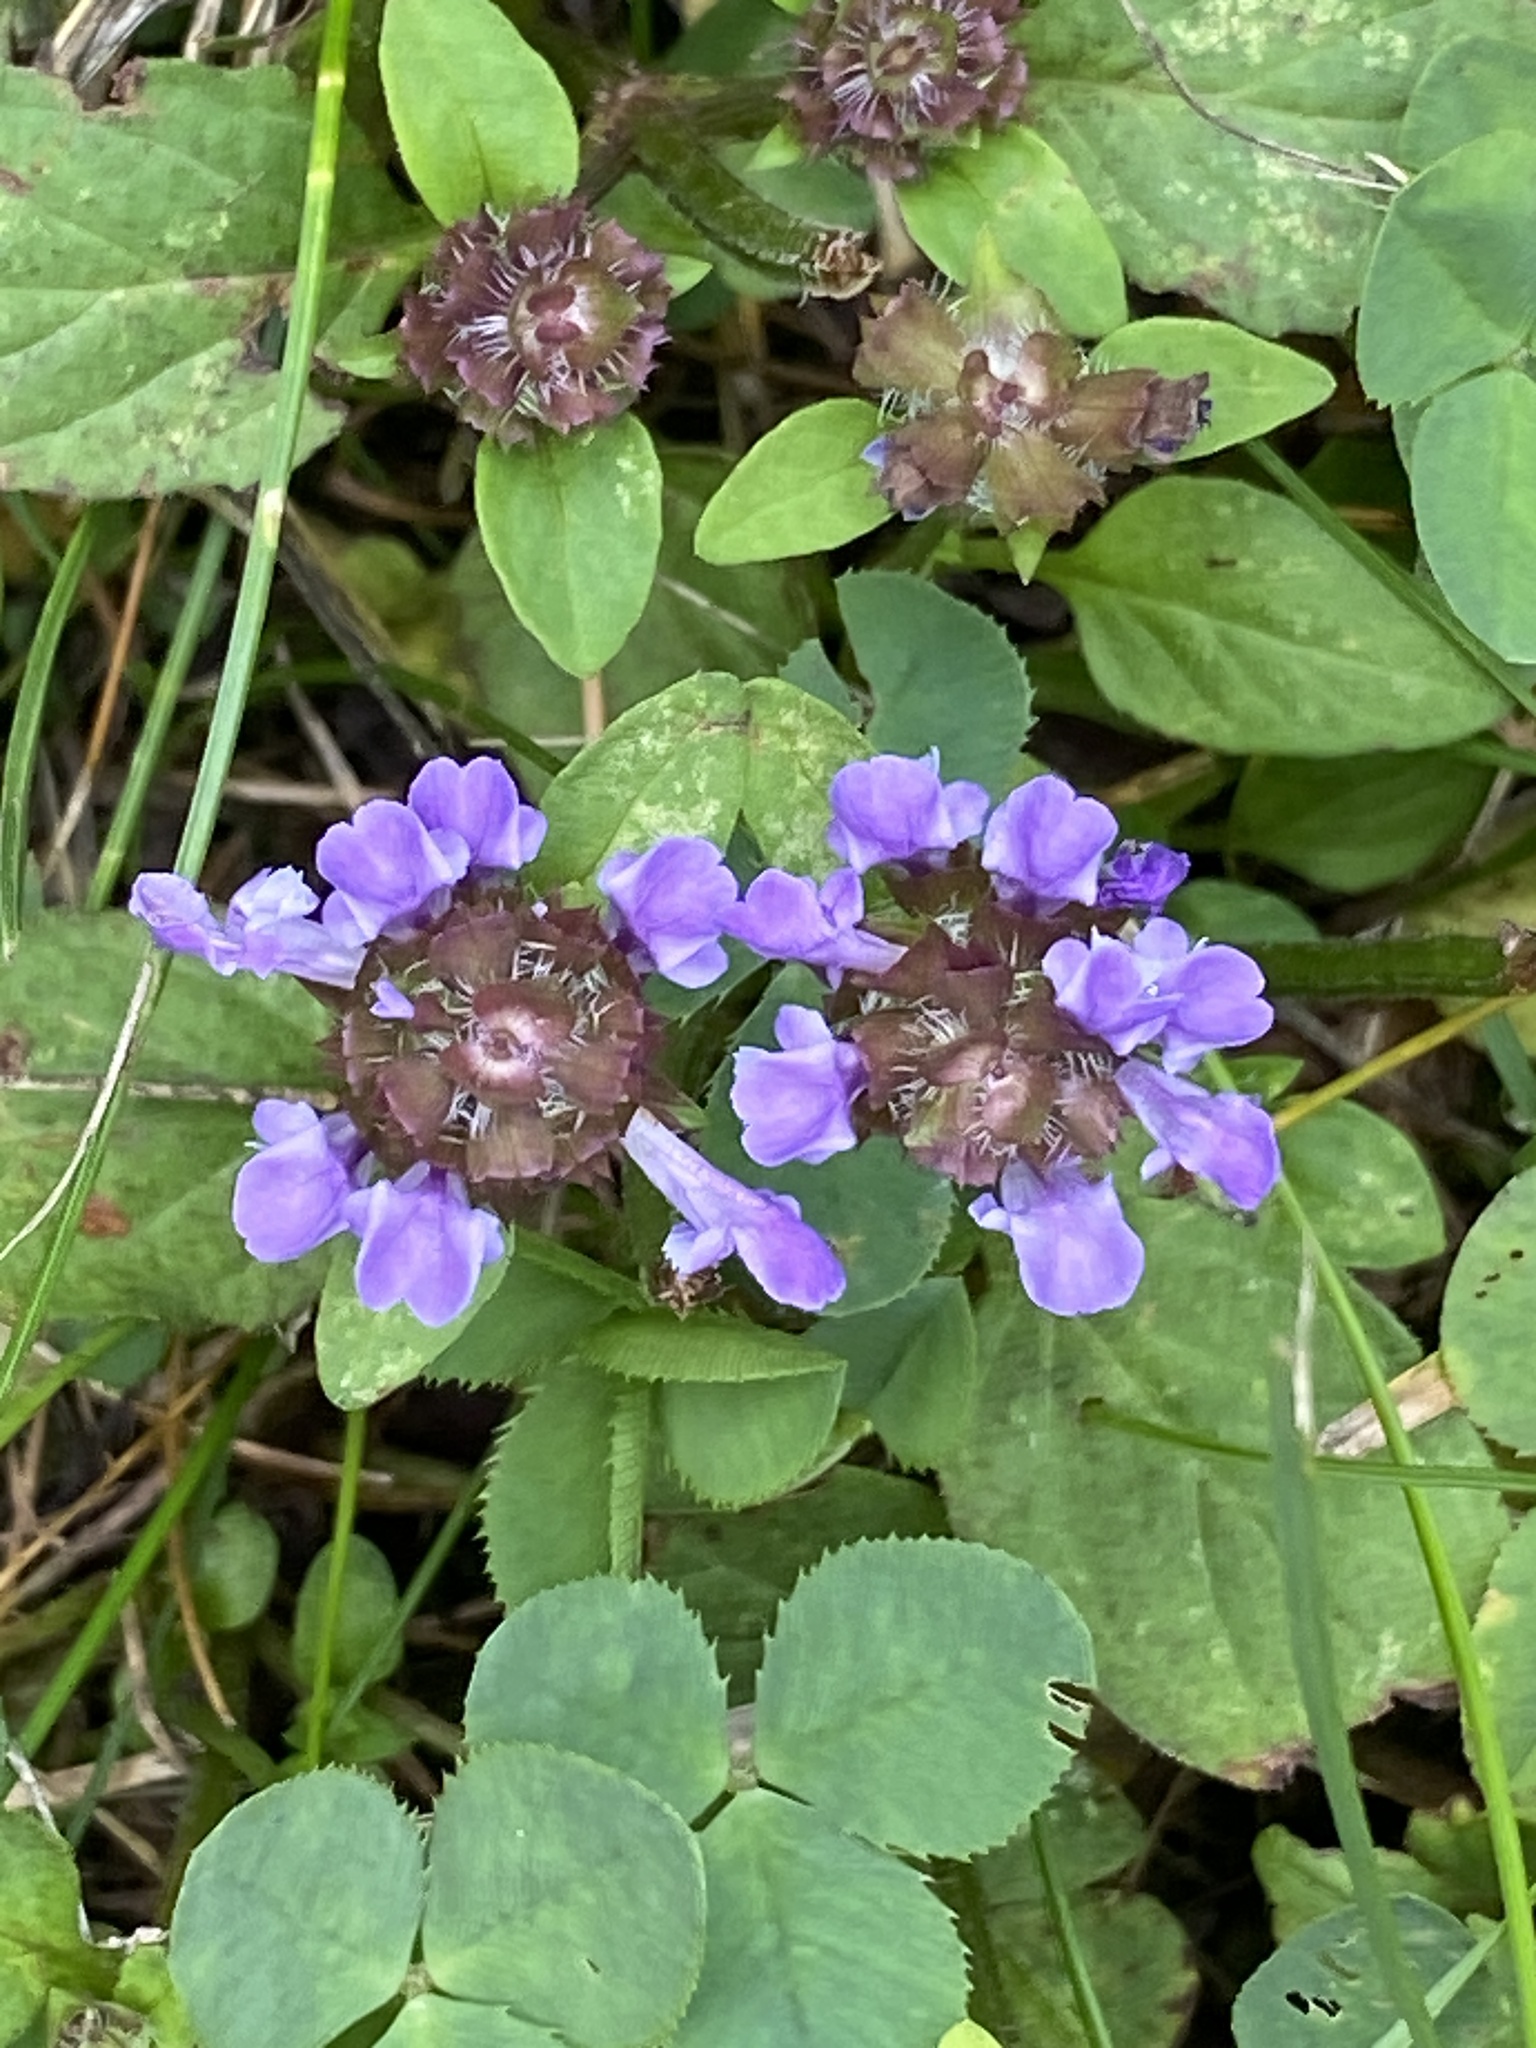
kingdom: Plantae
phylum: Tracheophyta
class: Magnoliopsida
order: Lamiales
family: Lamiaceae
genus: Prunella
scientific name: Prunella vulgaris
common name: Heal-all
